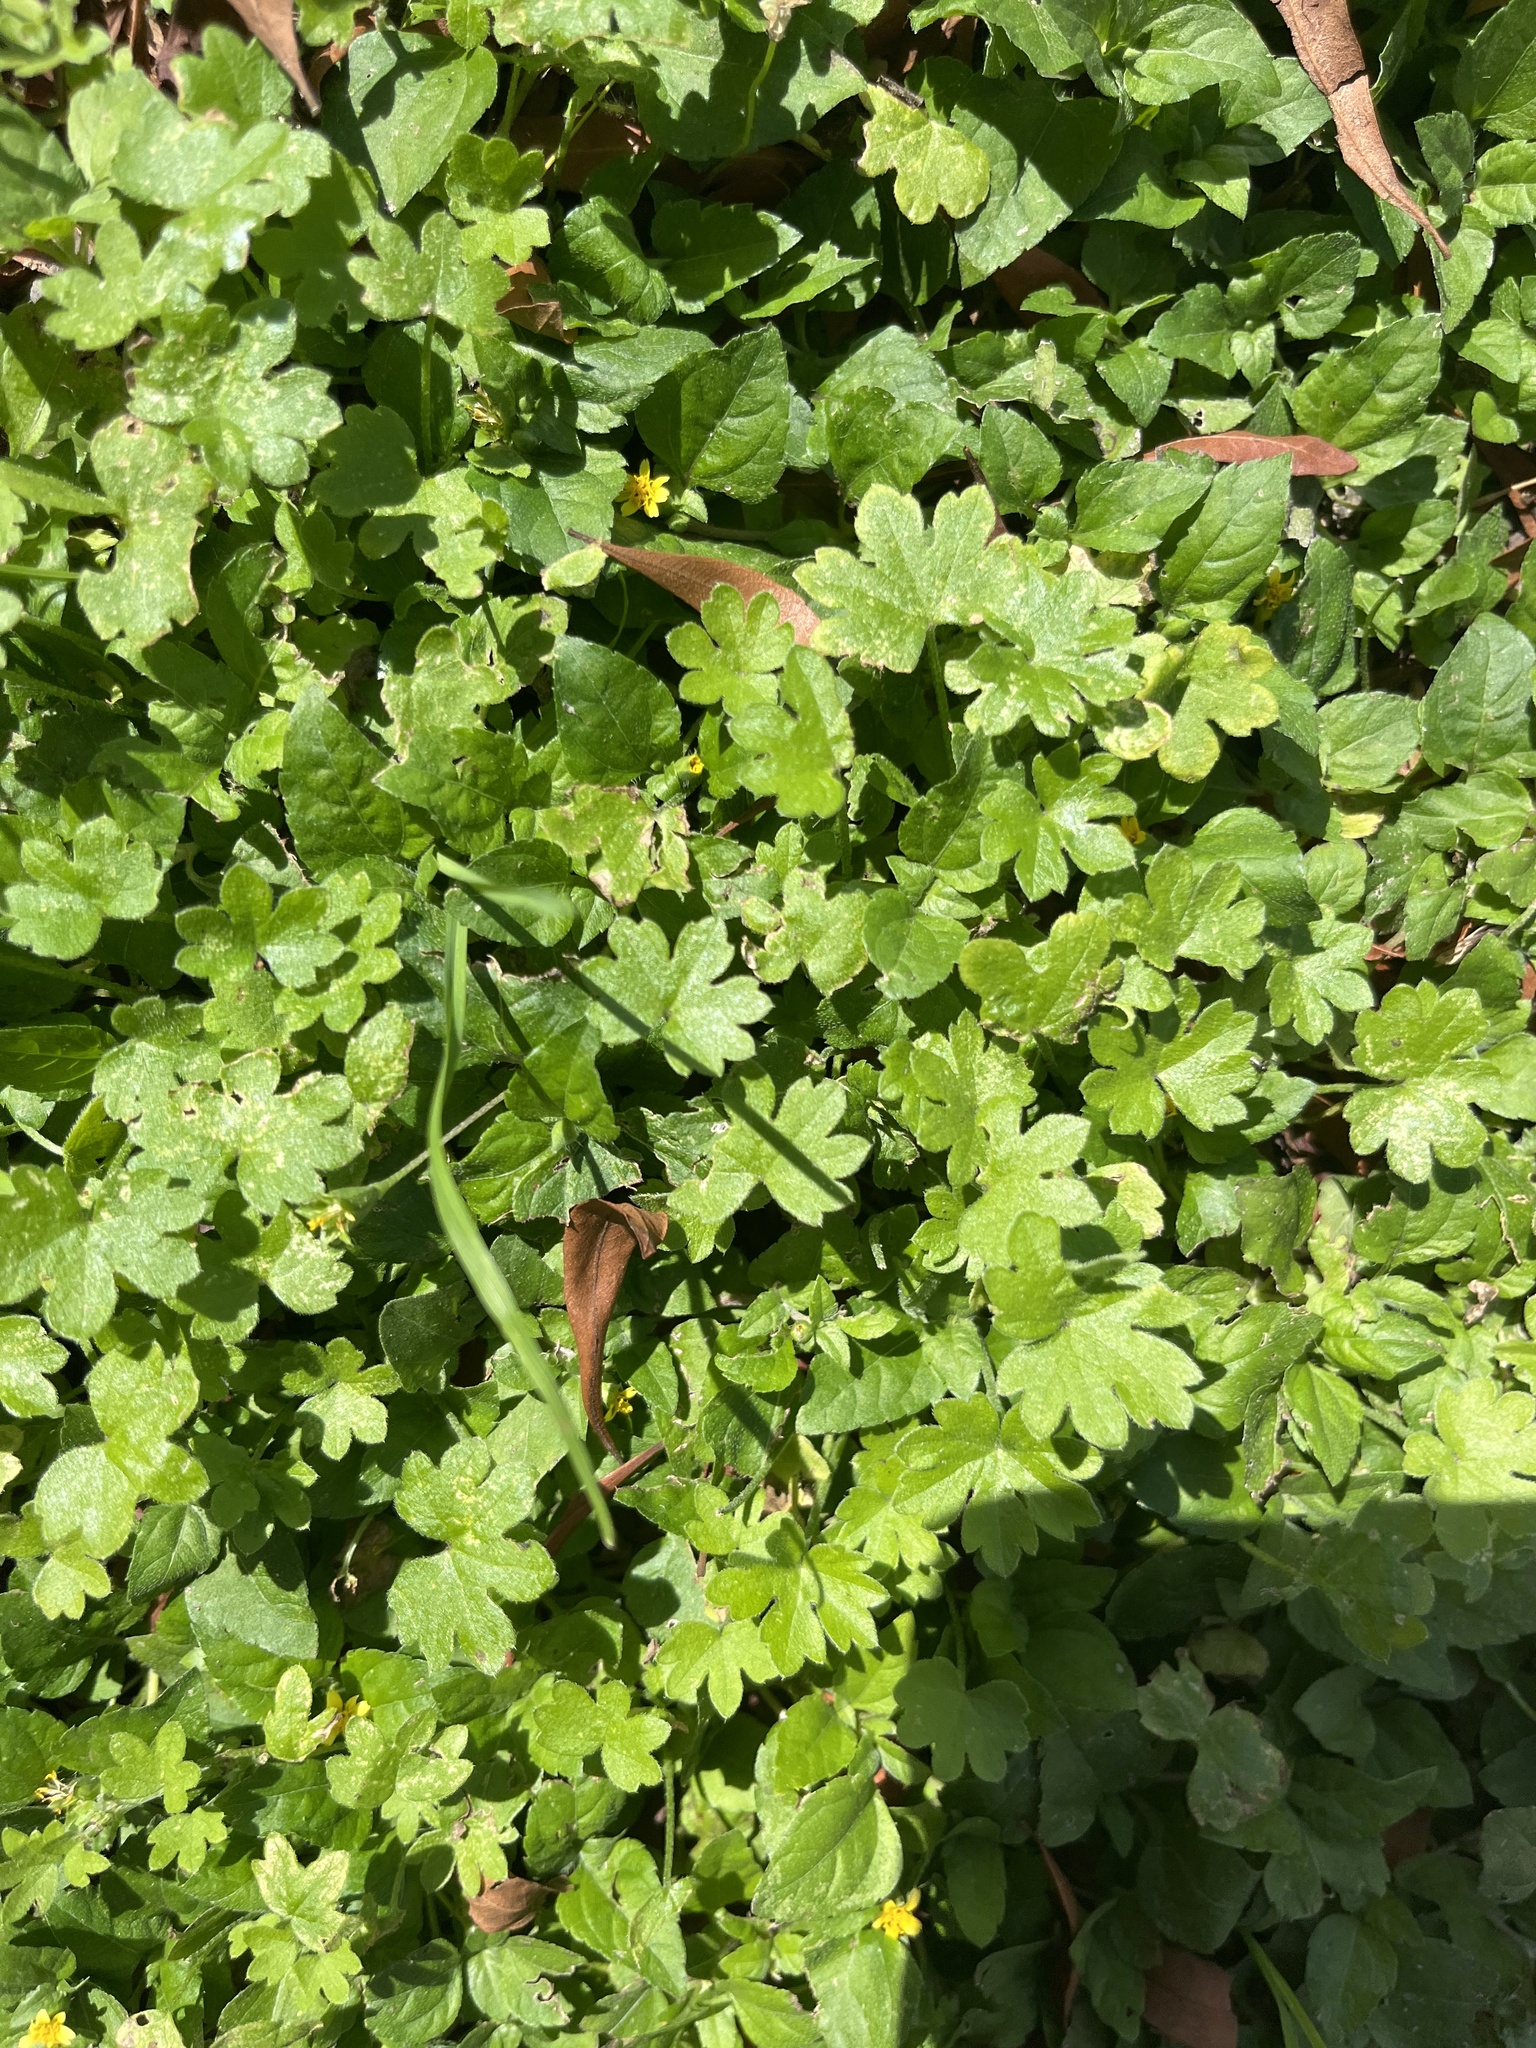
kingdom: Plantae
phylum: Tracheophyta
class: Magnoliopsida
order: Apiales
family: Apiaceae
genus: Bowlesia
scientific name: Bowlesia incana
